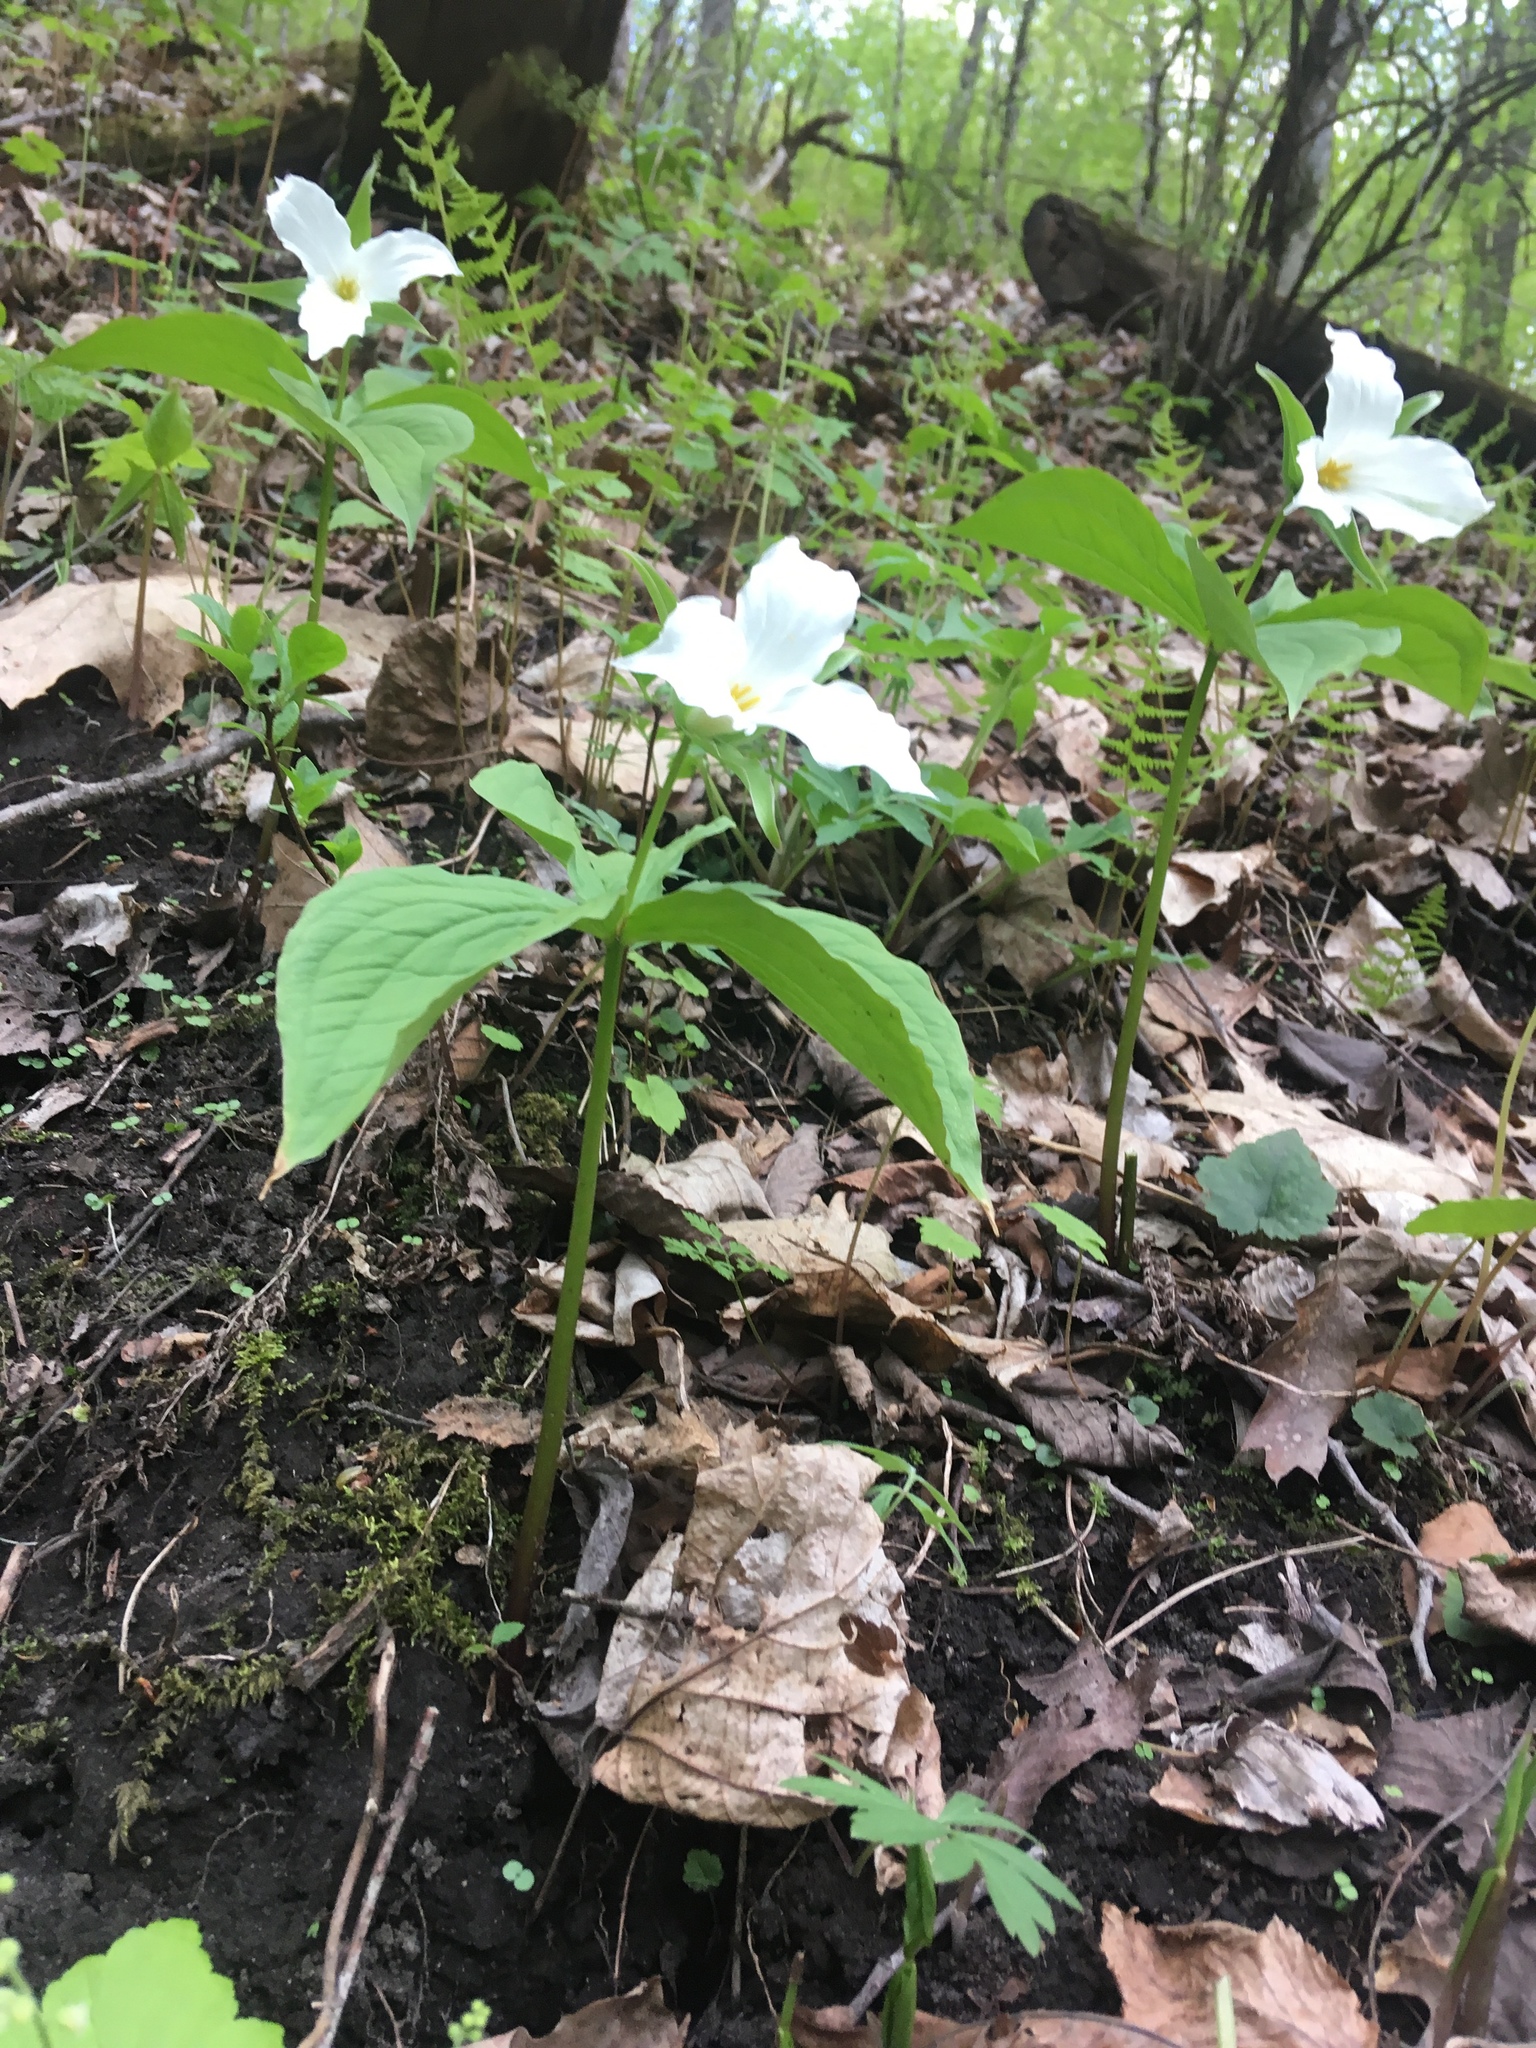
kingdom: Plantae
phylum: Tracheophyta
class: Liliopsida
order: Liliales
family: Melanthiaceae
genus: Trillium
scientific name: Trillium grandiflorum
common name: Great white trillium
